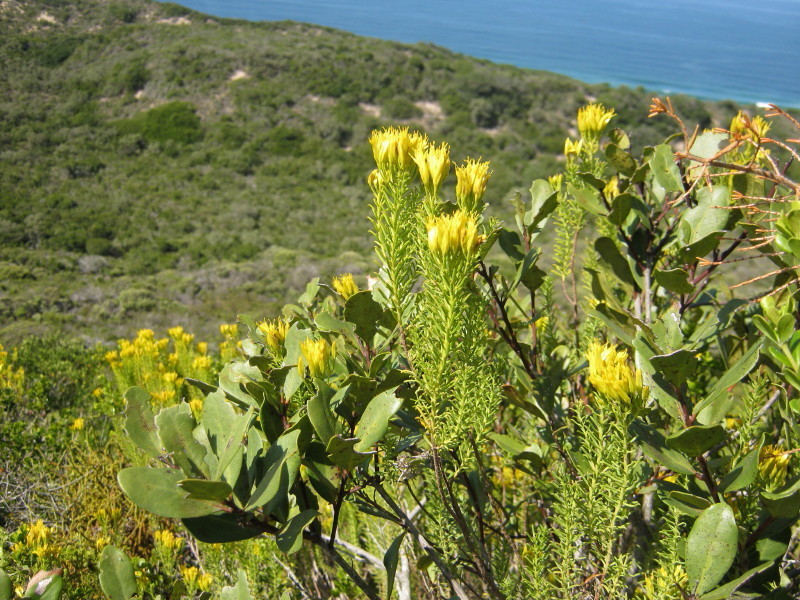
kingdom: Plantae
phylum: Tracheophyta
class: Magnoliopsida
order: Asterales
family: Asteraceae
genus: Pteronia
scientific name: Pteronia uncinata
